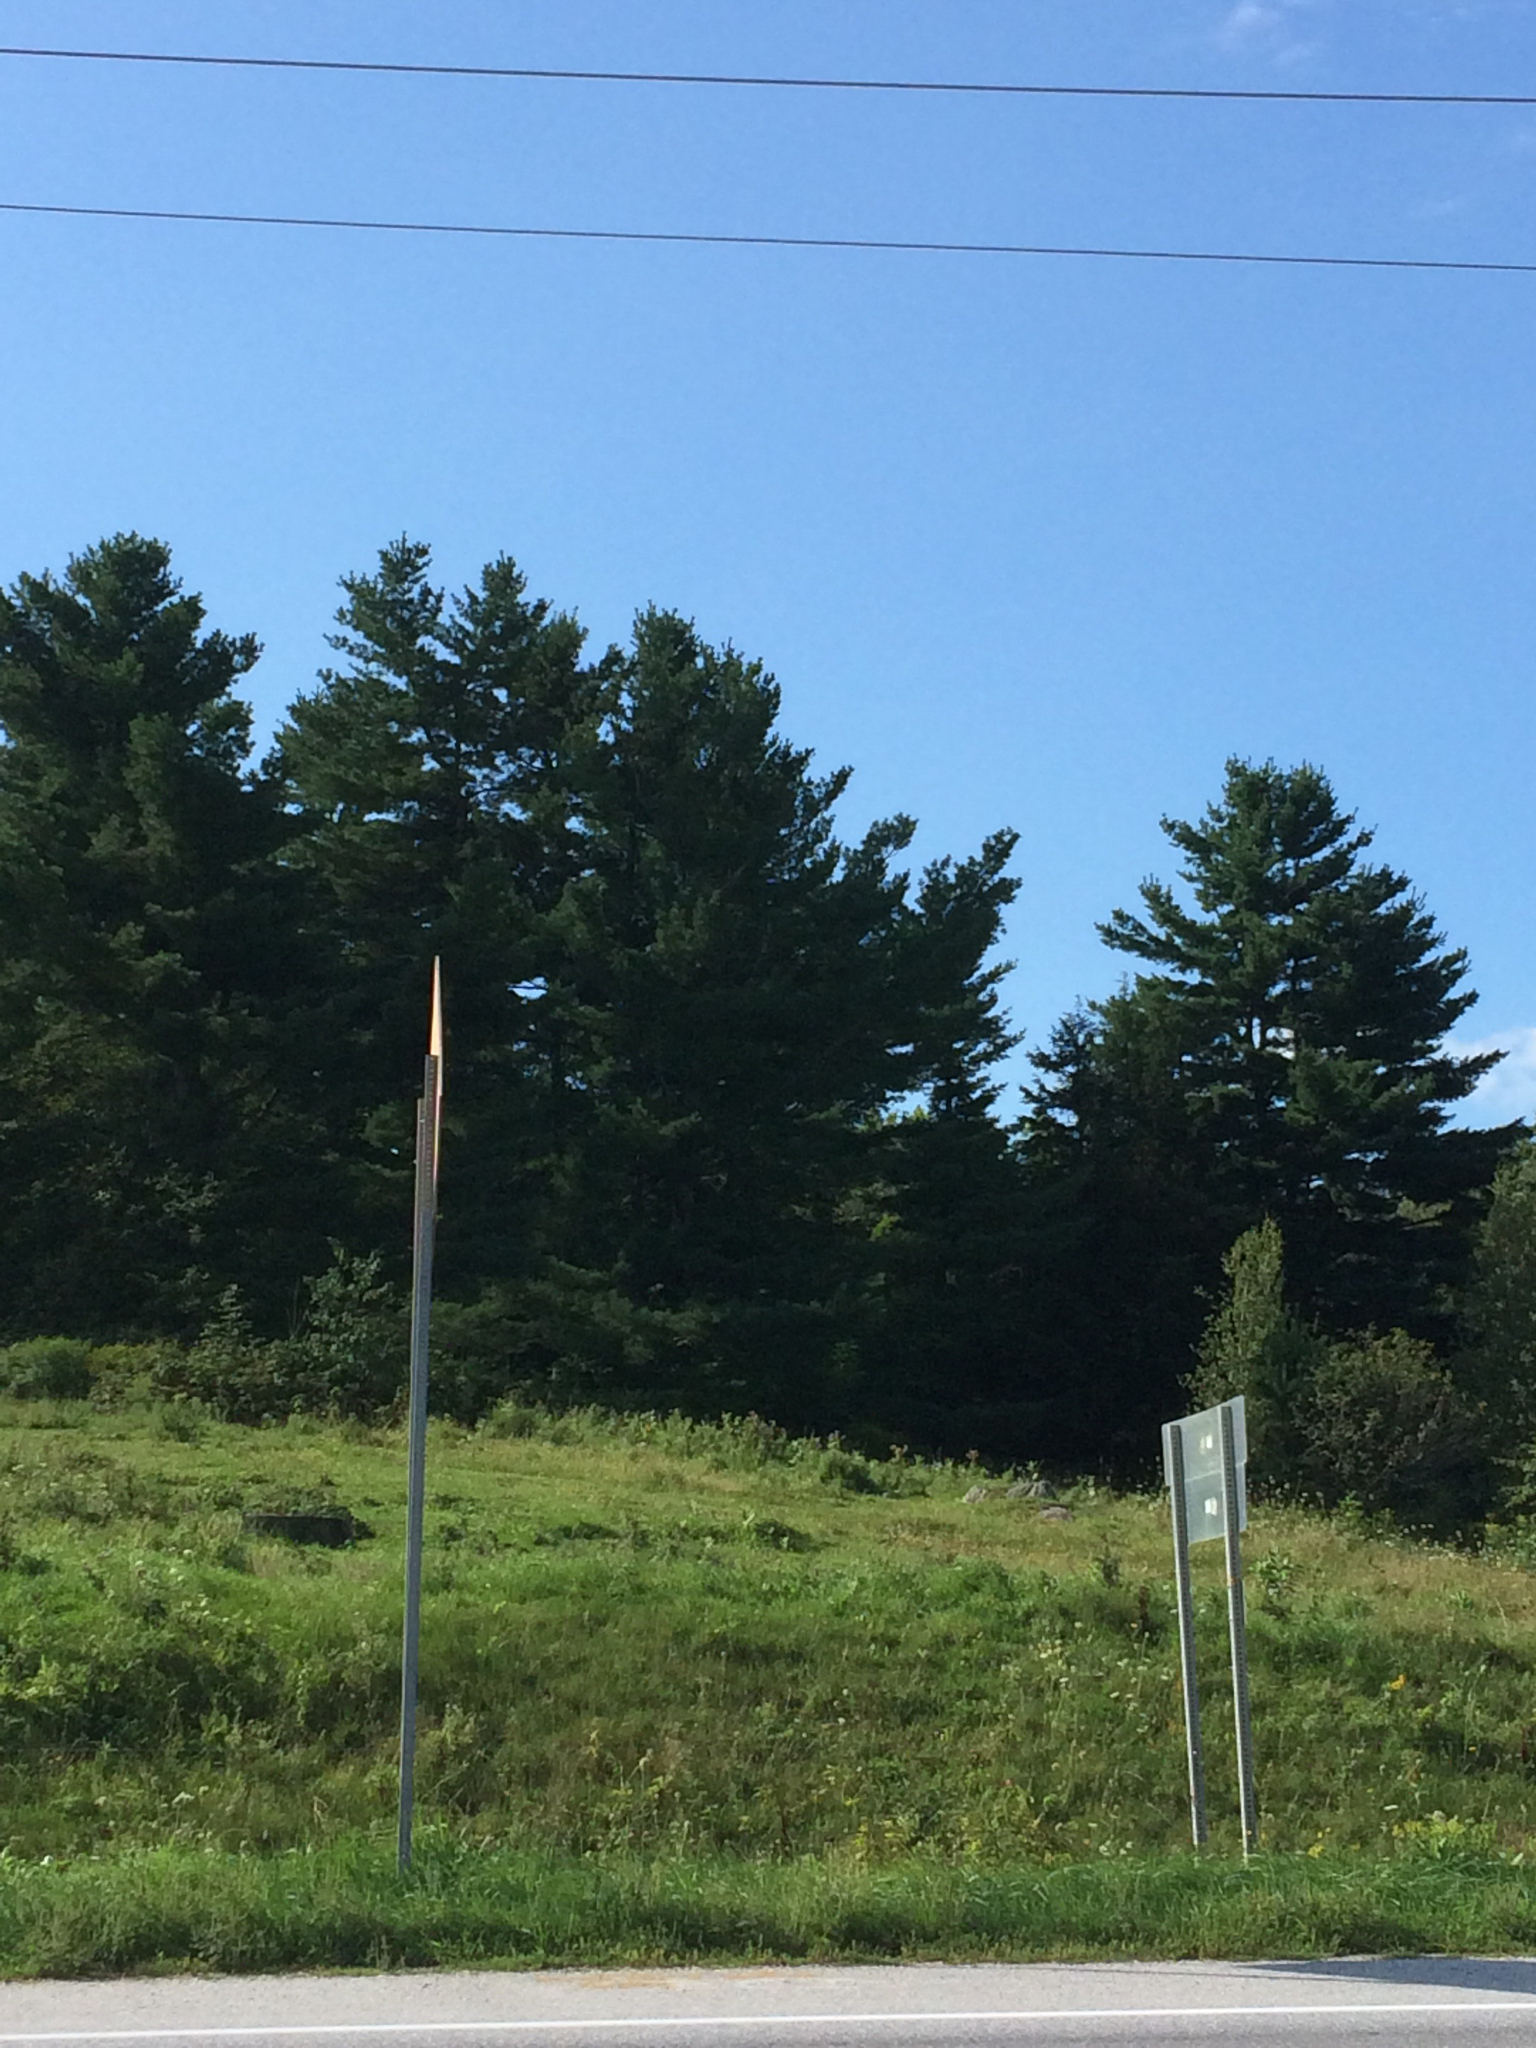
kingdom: Plantae
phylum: Tracheophyta
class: Pinopsida
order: Pinales
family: Pinaceae
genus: Pinus
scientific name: Pinus strobus
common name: Weymouth pine
